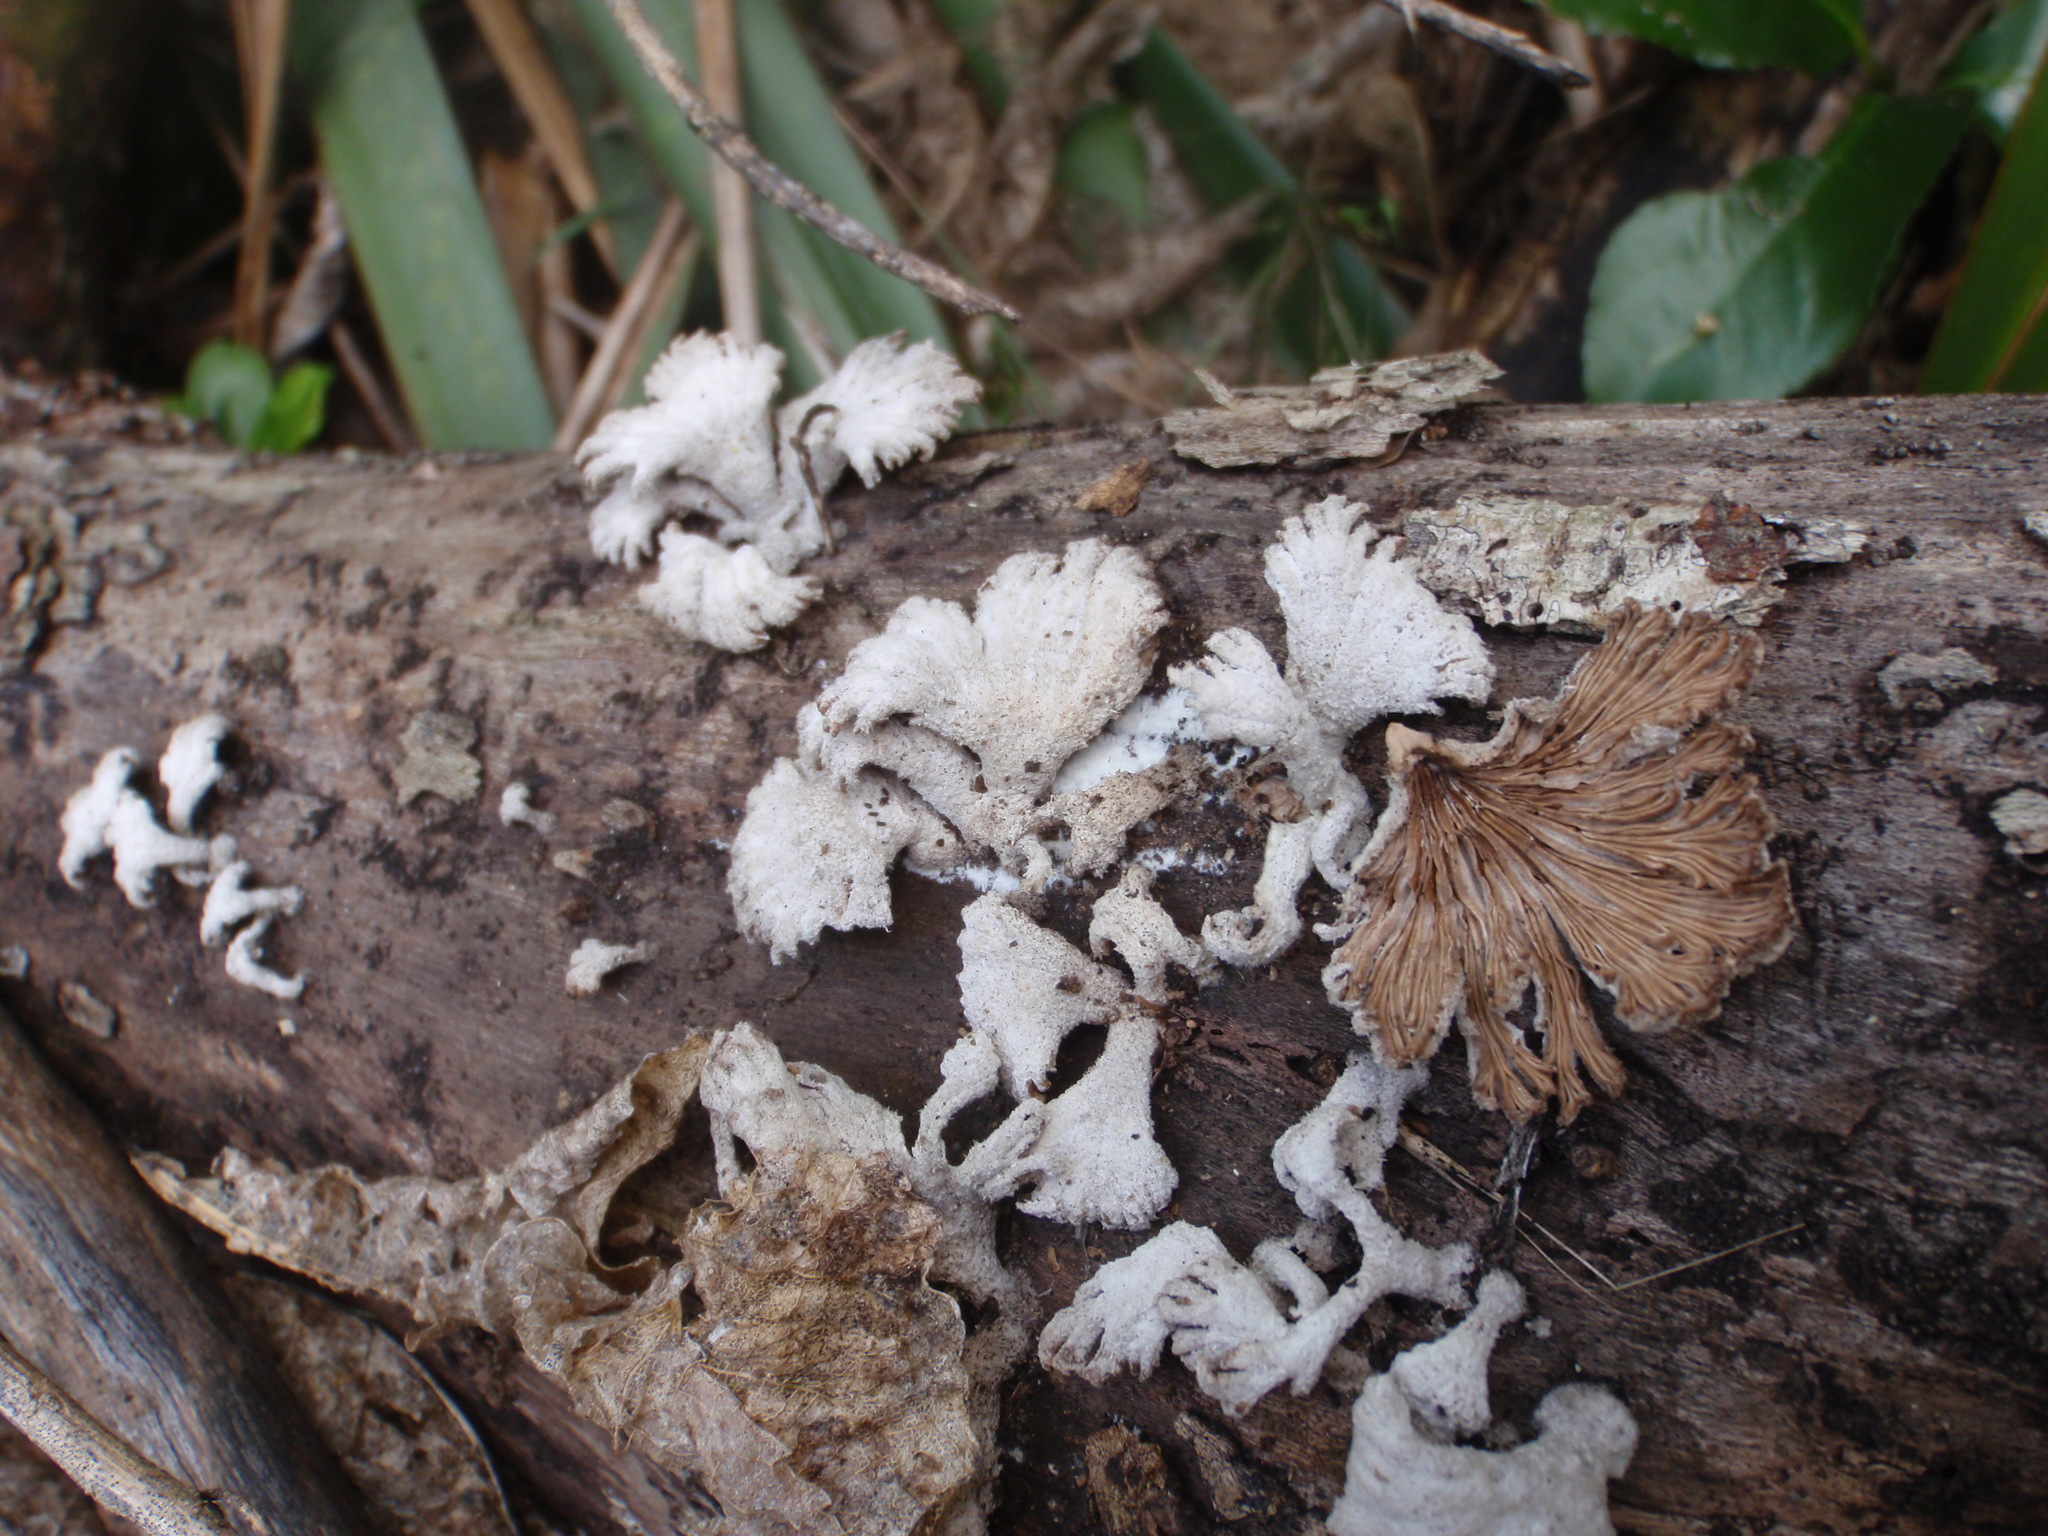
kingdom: Fungi
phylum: Basidiomycota
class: Agaricomycetes
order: Agaricales
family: Schizophyllaceae
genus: Schizophyllum
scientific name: Schizophyllum commune
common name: Common porecrust
